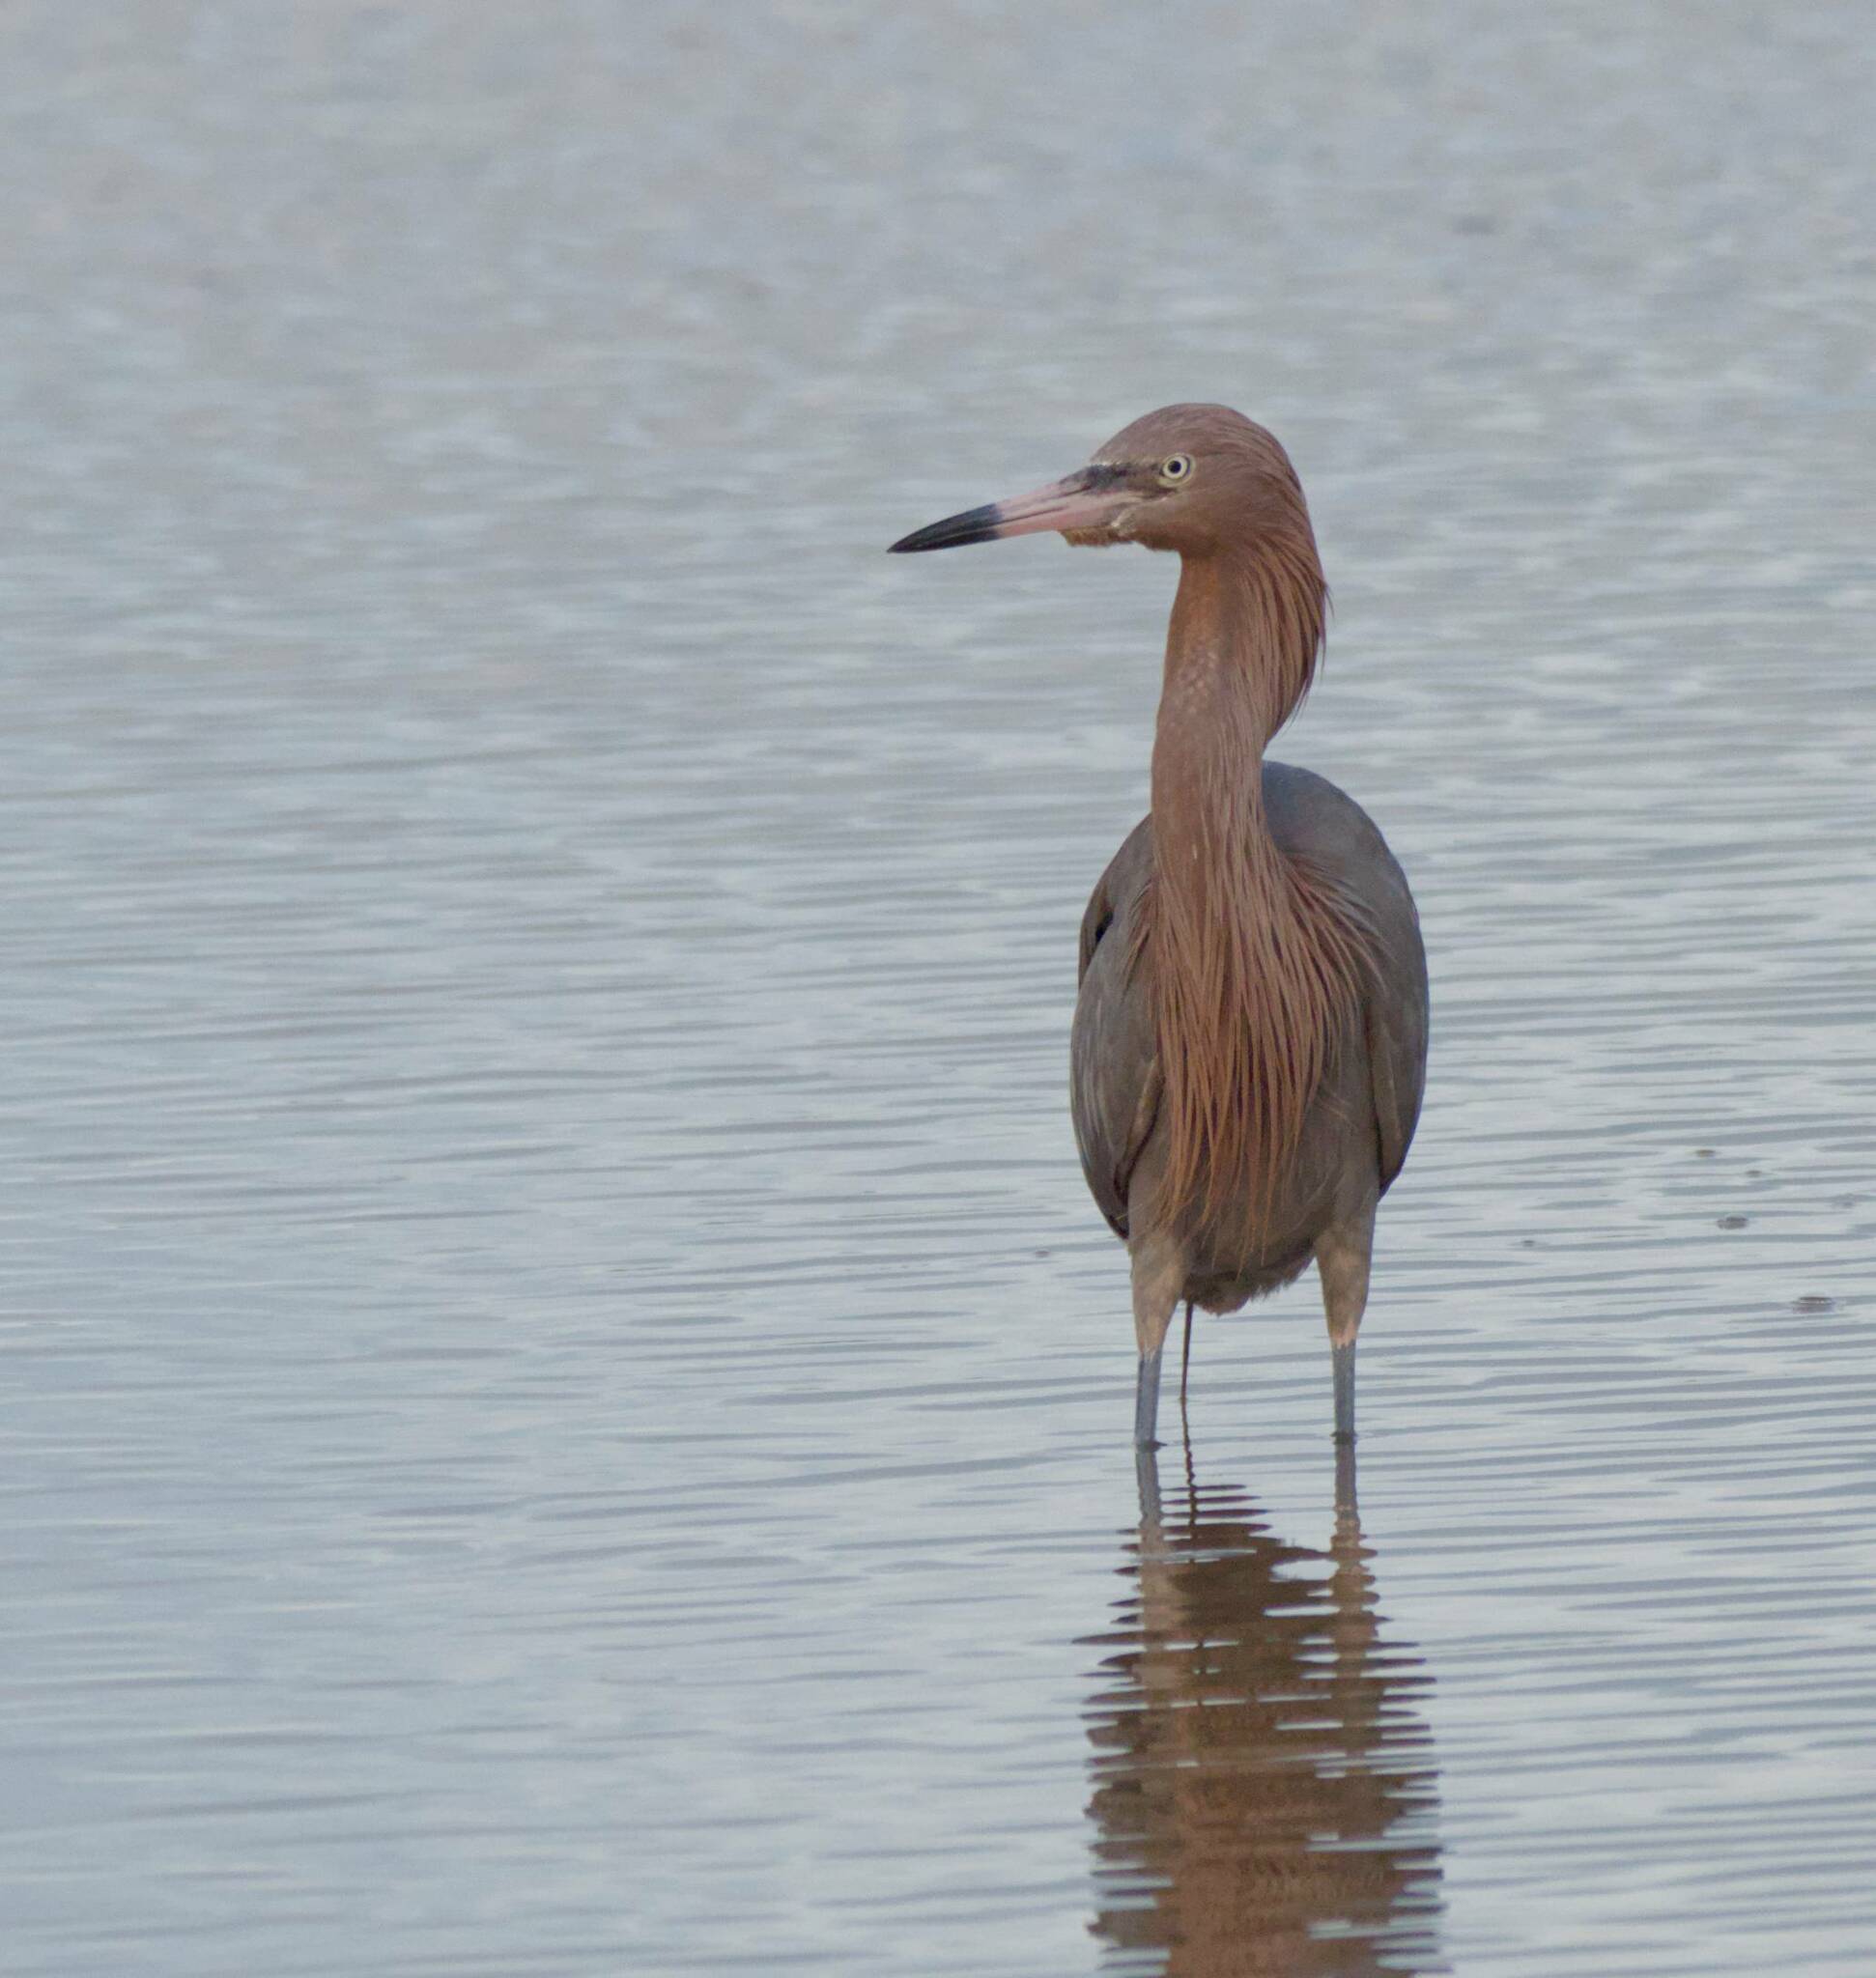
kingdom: Animalia
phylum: Chordata
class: Aves
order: Pelecaniformes
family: Ardeidae
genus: Egretta
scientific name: Egretta rufescens
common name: Reddish egret
